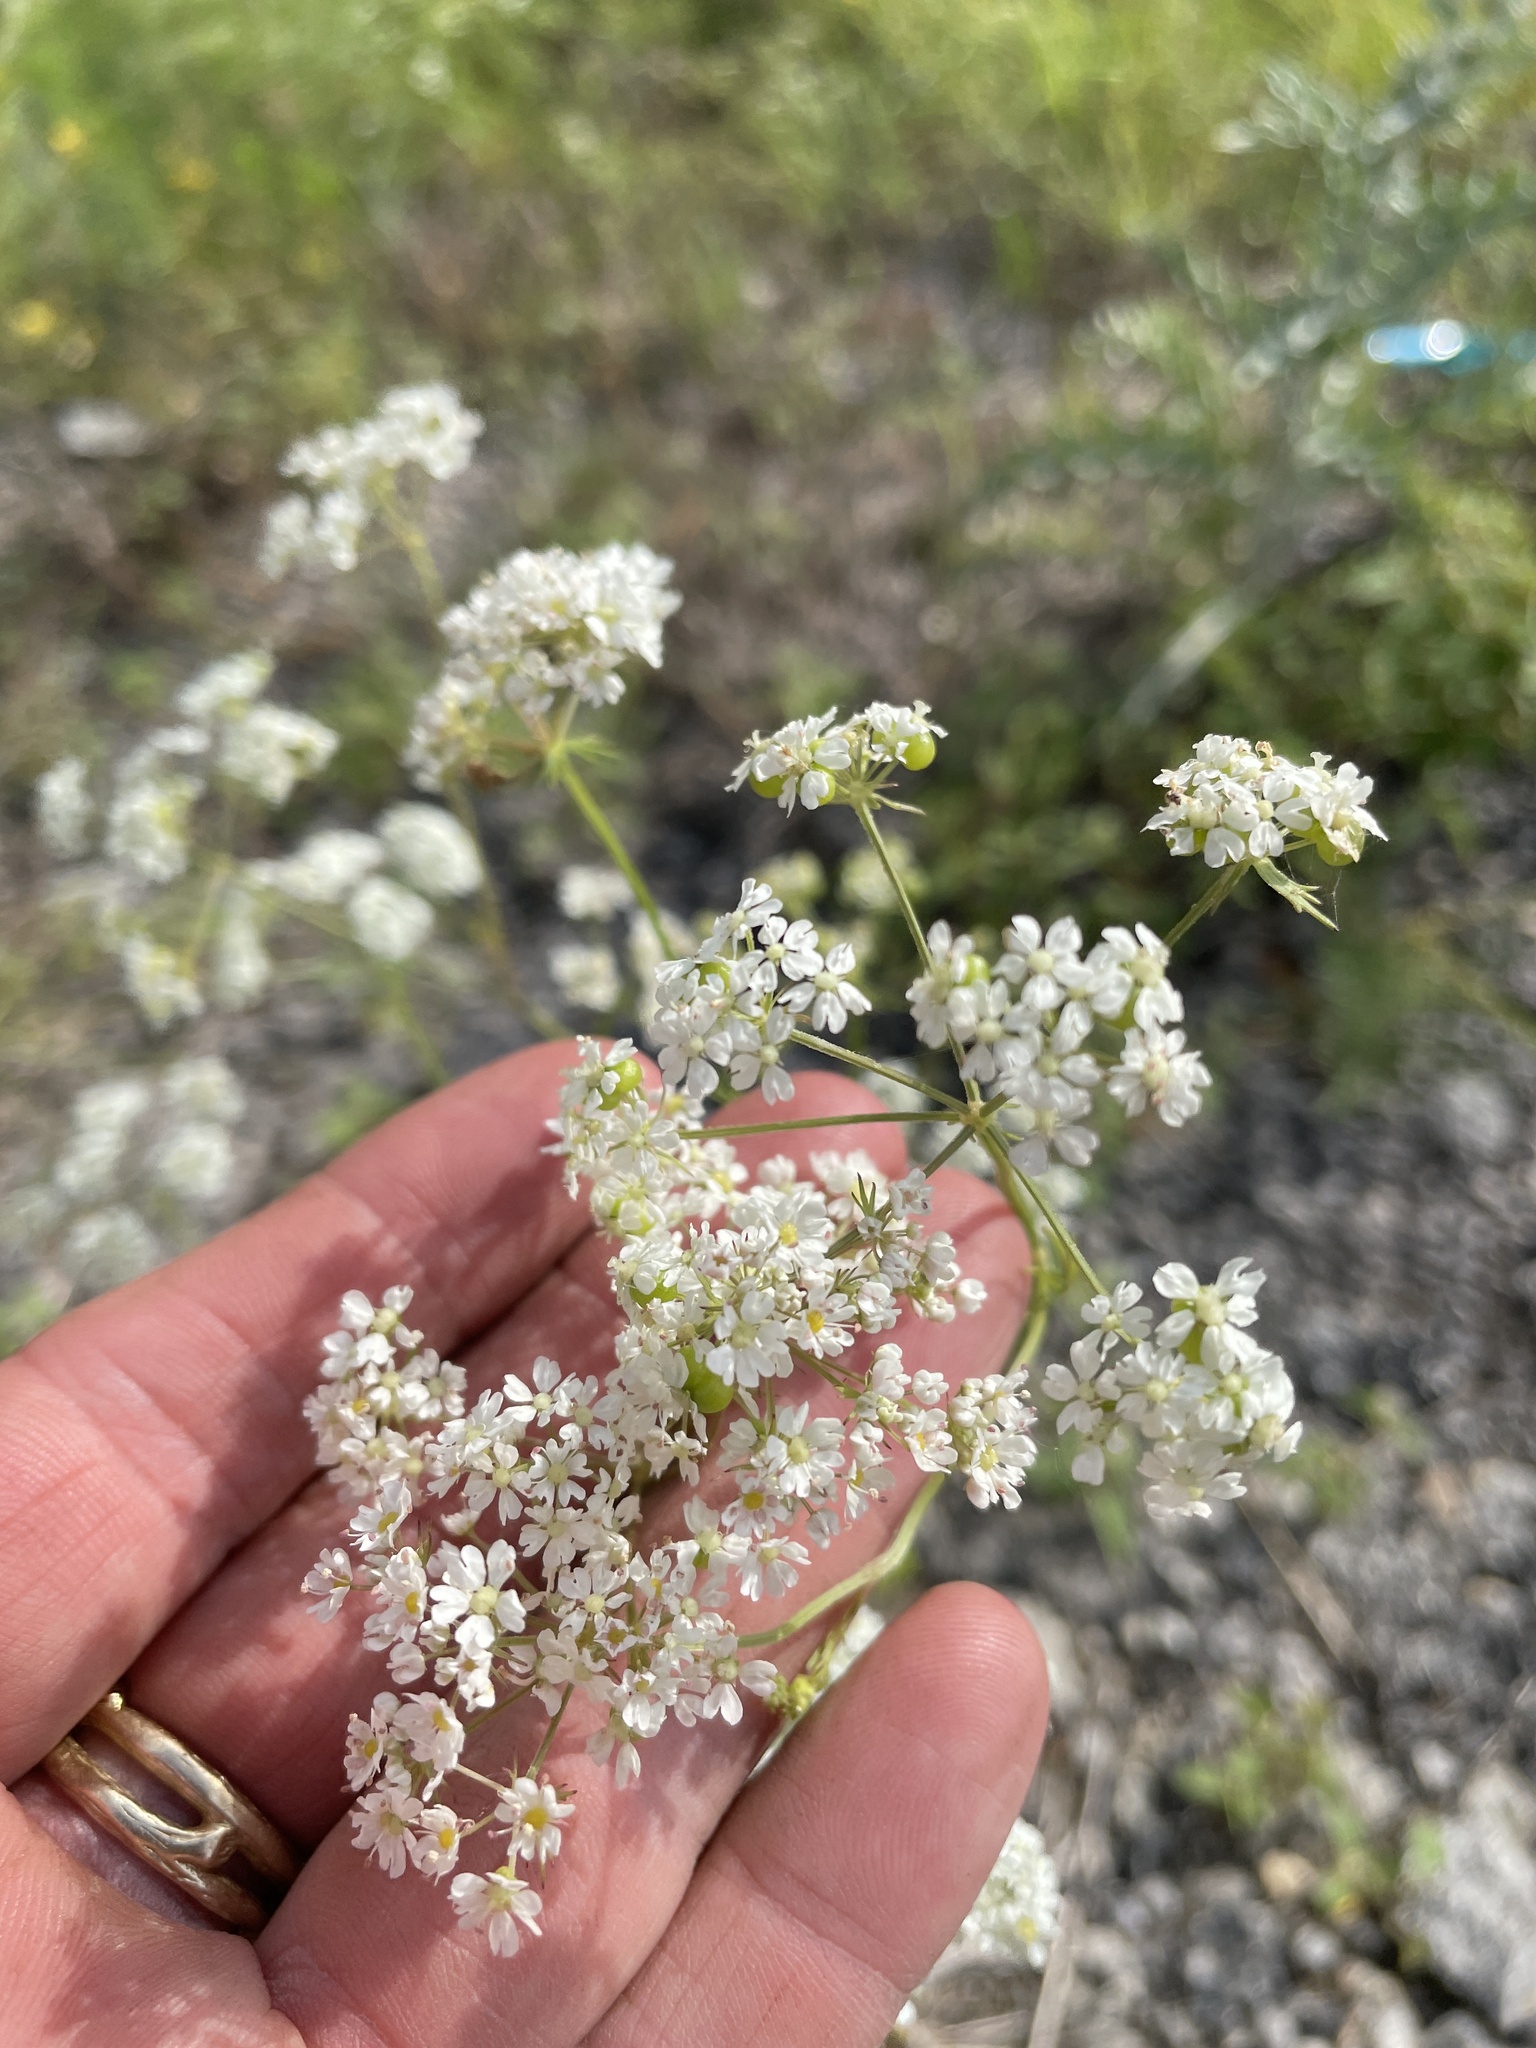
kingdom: Plantae
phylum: Tracheophyta
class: Magnoliopsida
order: Apiales
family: Apiaceae
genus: Atrema
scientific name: Atrema americanum
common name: Prairie-bishop
